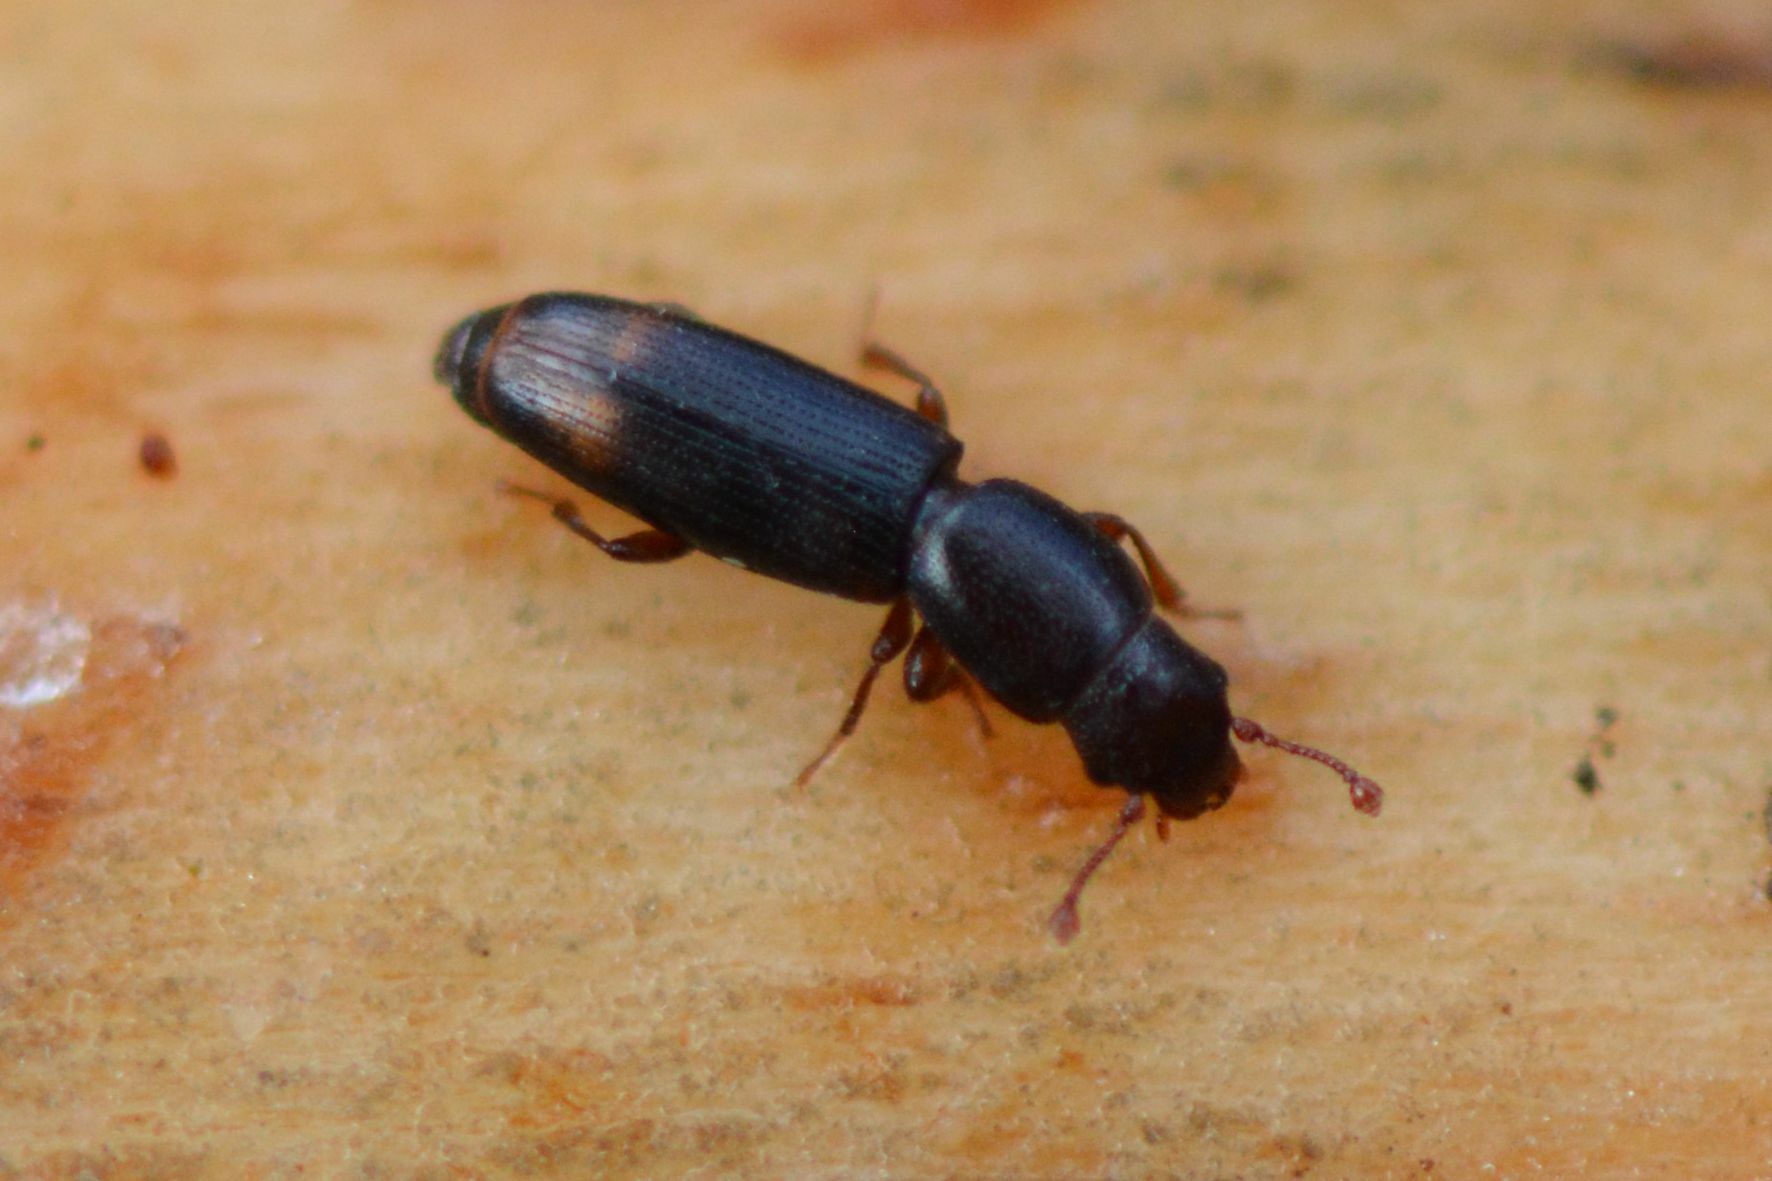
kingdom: Animalia
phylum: Arthropoda
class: Insecta
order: Coleoptera
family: Monotomidae
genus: Rhizophagus
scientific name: Rhizophagus bipustulatus
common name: Root-eating beetle
